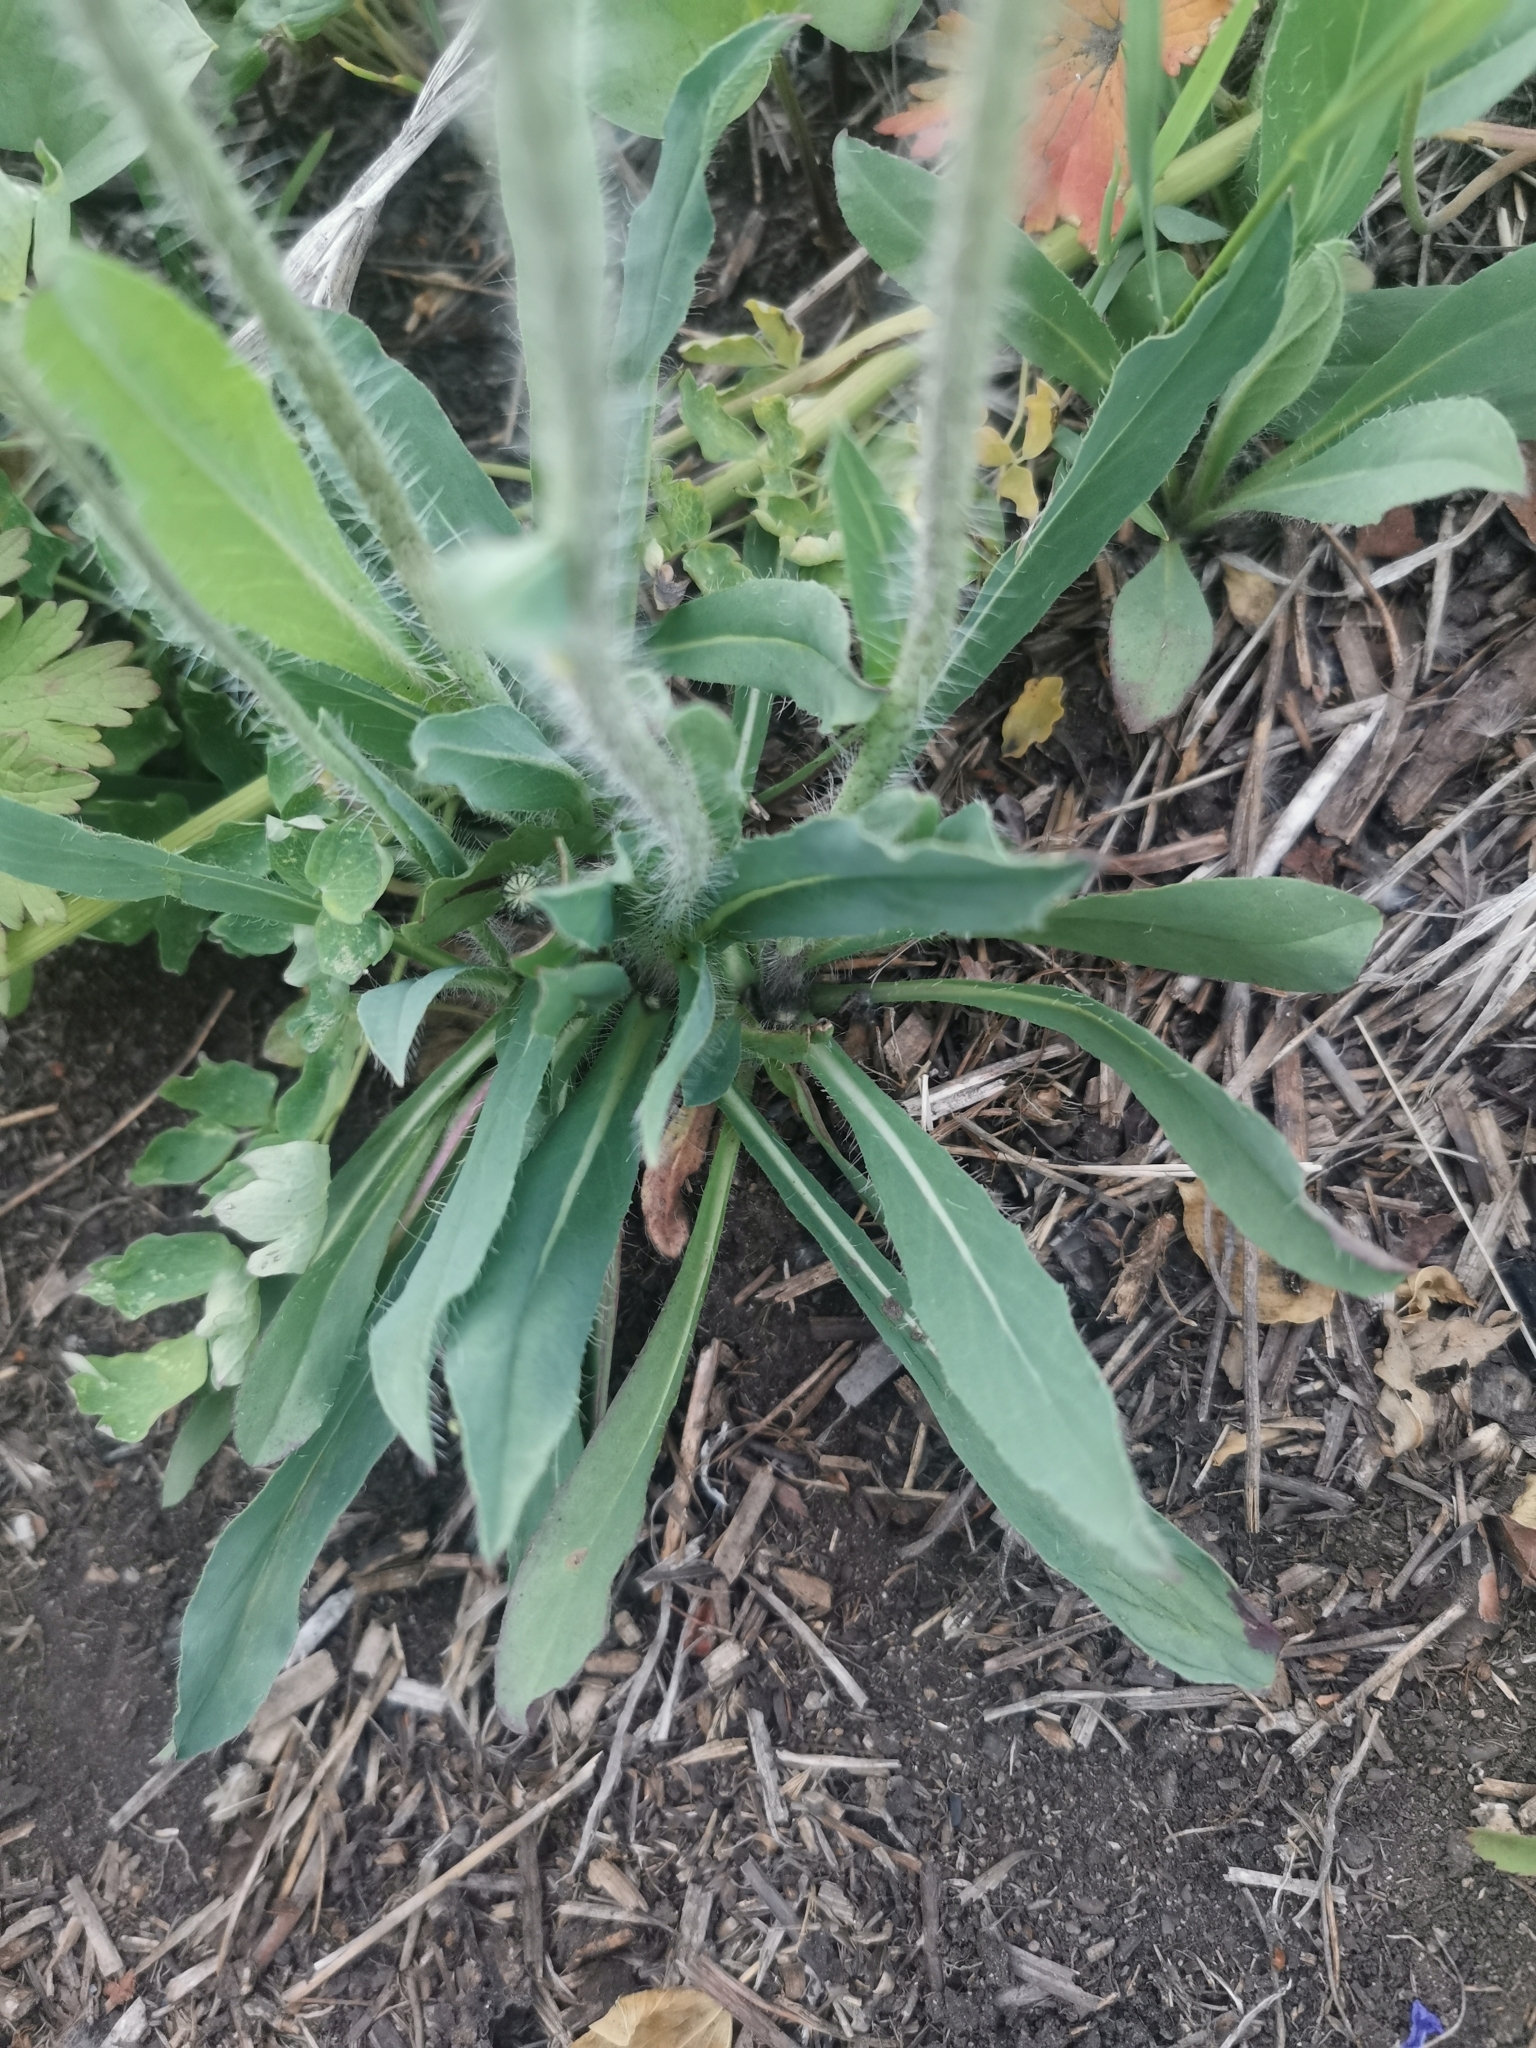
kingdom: Plantae
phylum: Tracheophyta
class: Magnoliopsida
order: Asterales
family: Asteraceae
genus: Pilosella
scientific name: Pilosella floribunda
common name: Glaucous hawkweed
